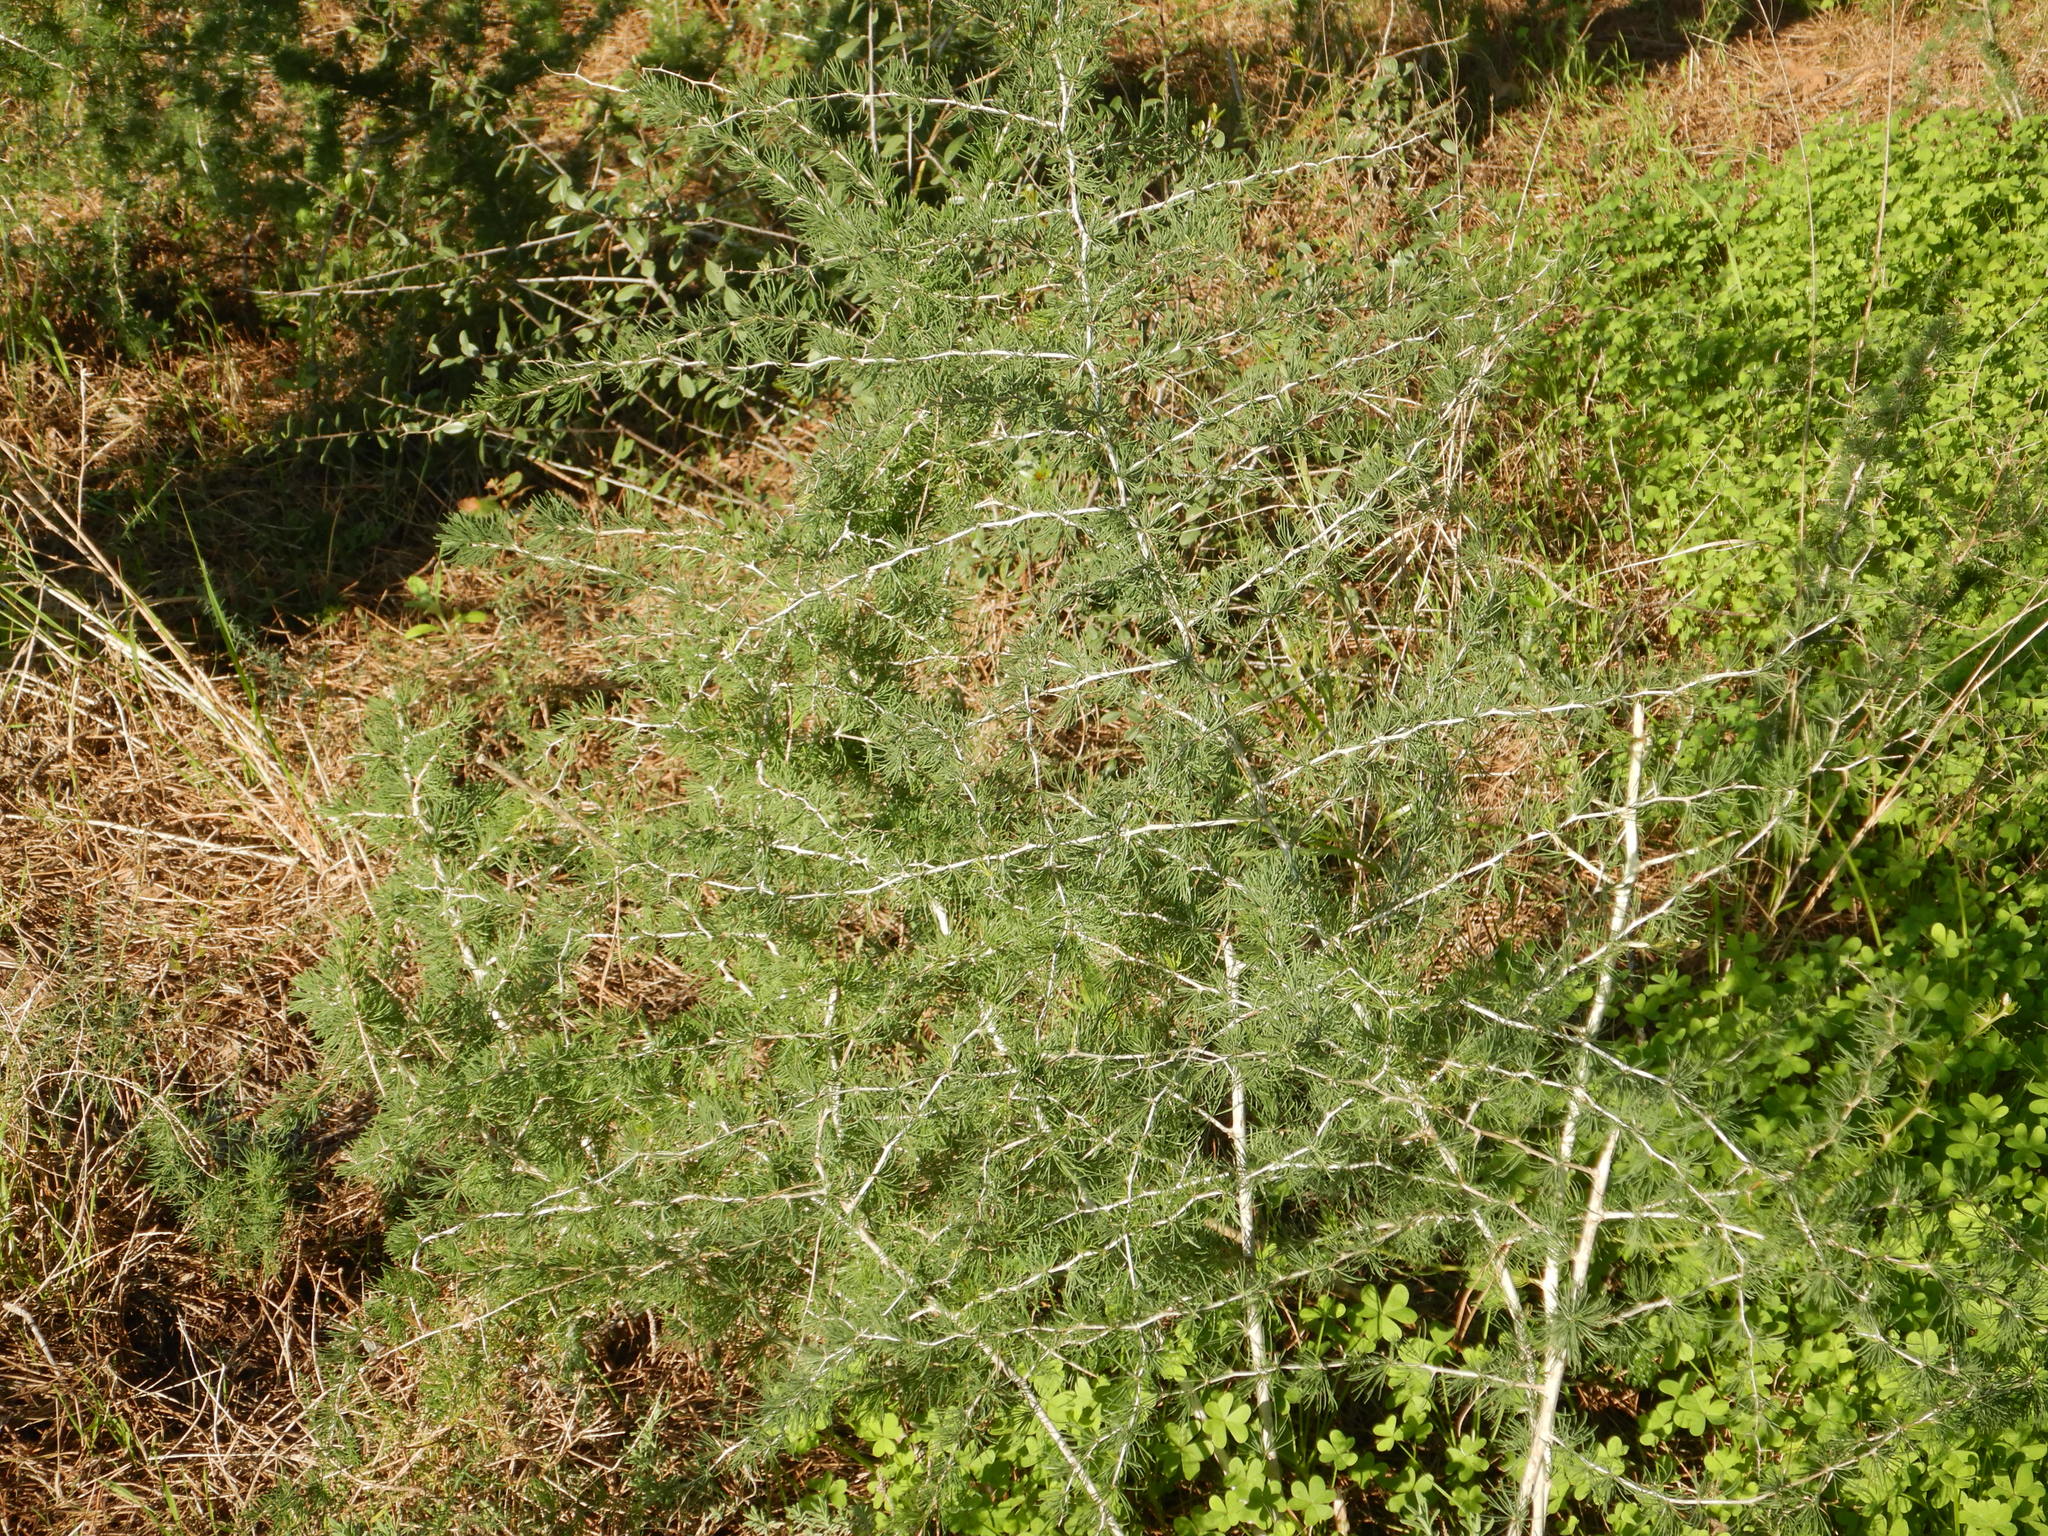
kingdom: Plantae
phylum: Tracheophyta
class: Liliopsida
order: Asparagales
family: Asparagaceae
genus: Asparagus
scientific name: Asparagus albus
